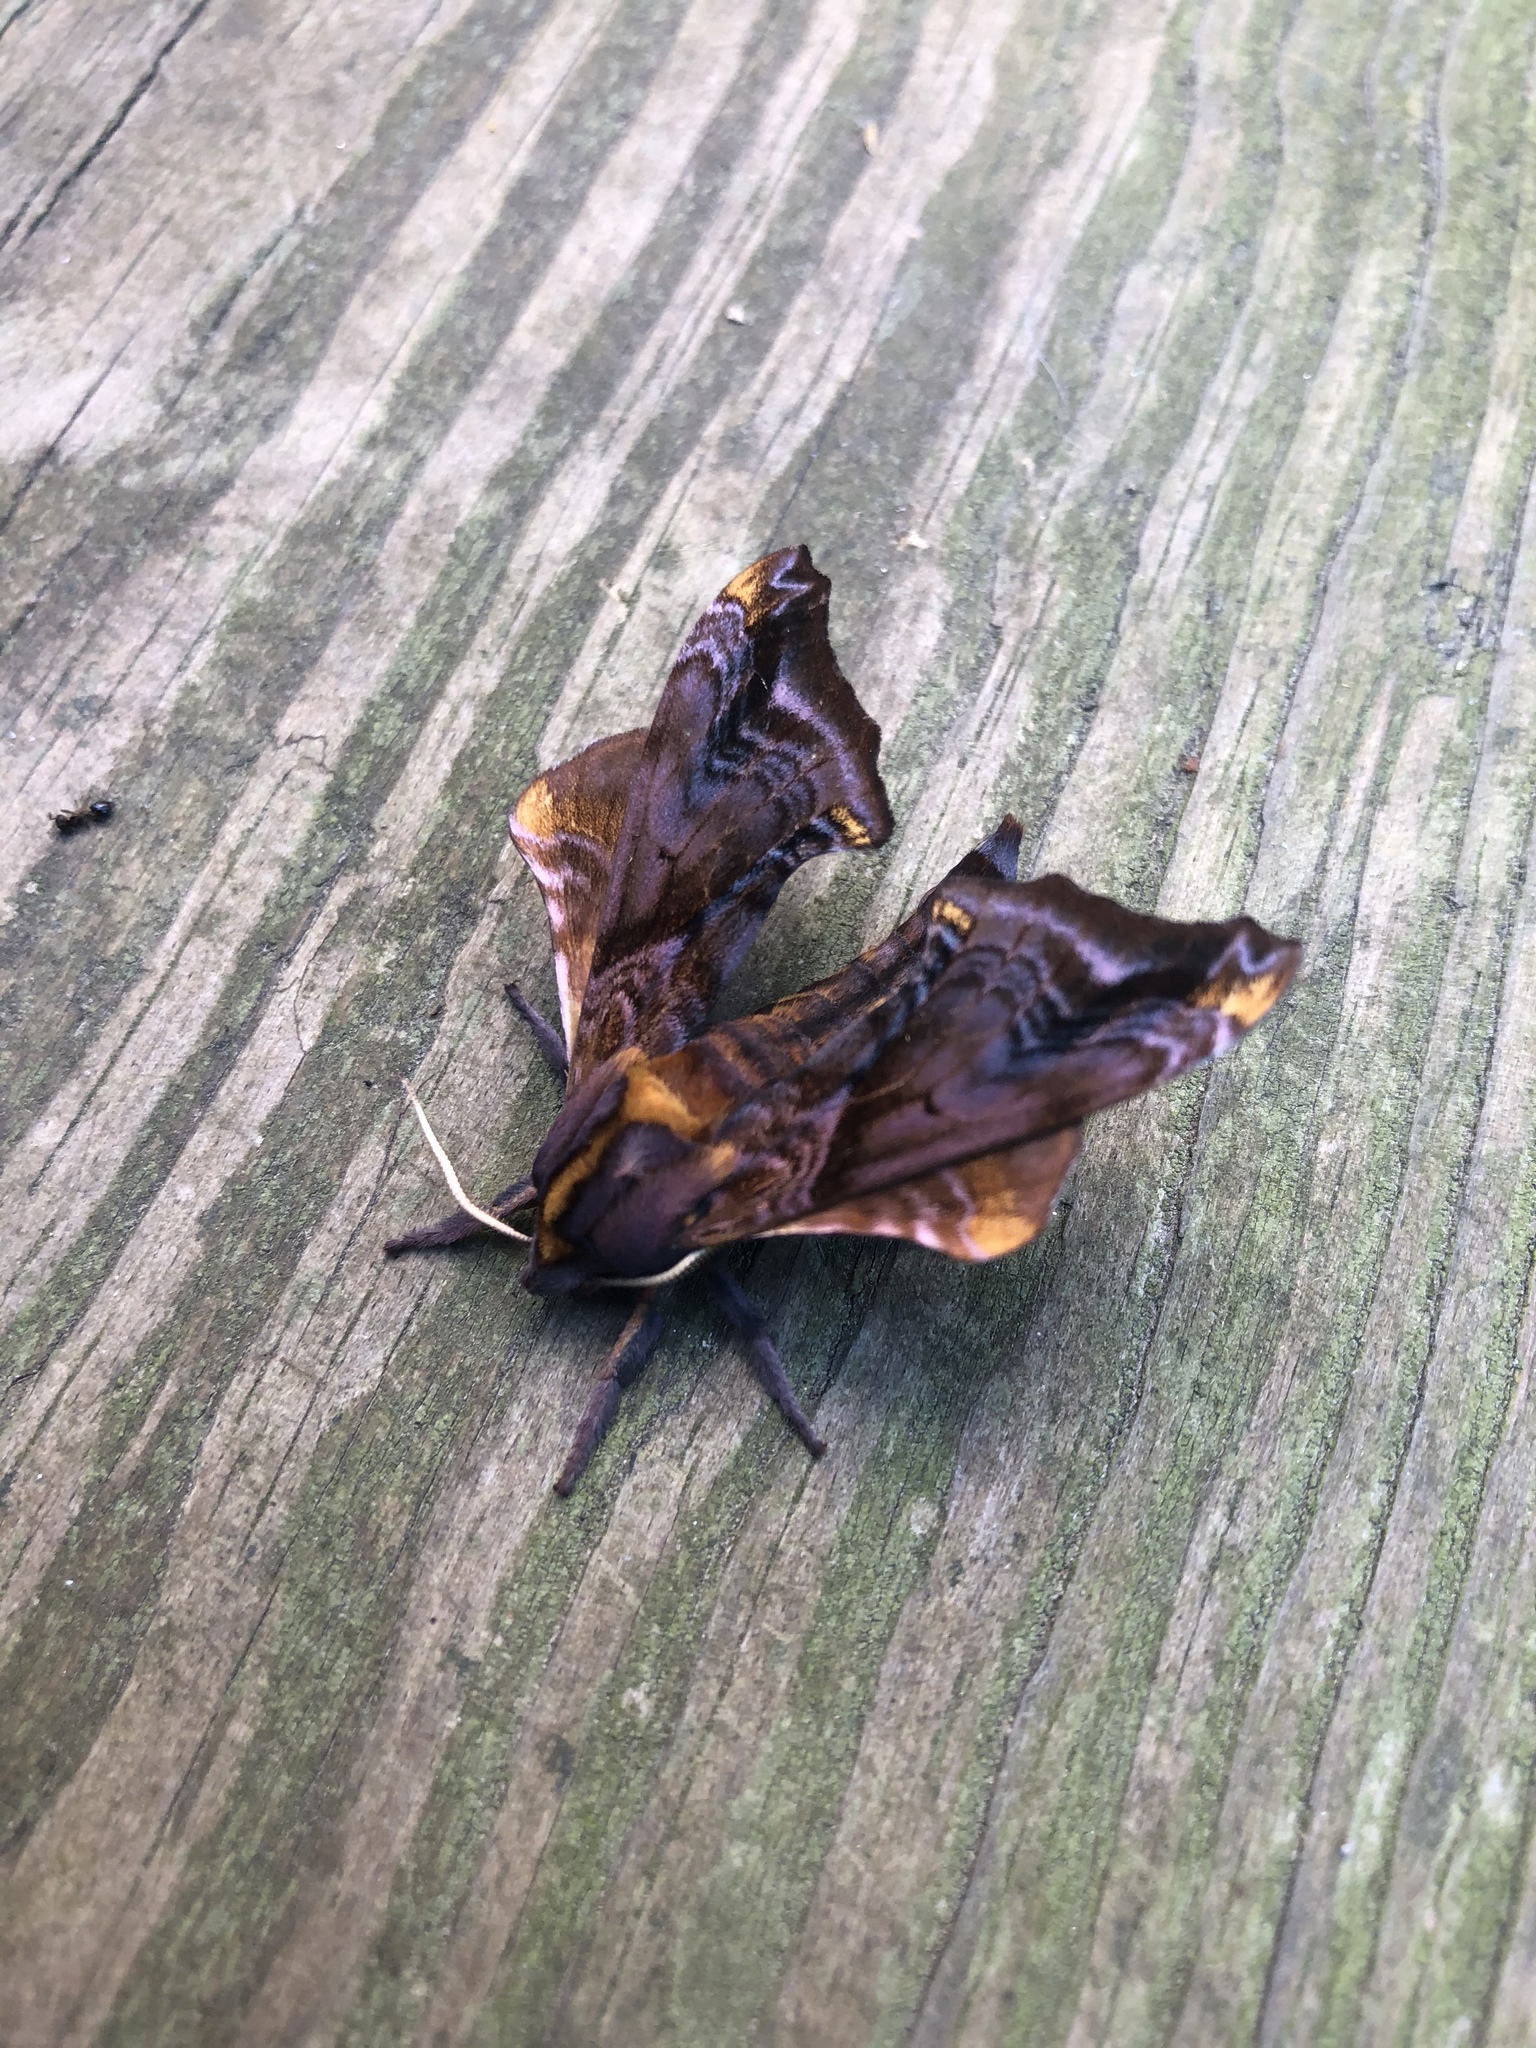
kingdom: Animalia
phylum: Arthropoda
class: Insecta
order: Lepidoptera
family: Sphingidae
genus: Paonias
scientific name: Paonias myops
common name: Small-eyed sphinx
